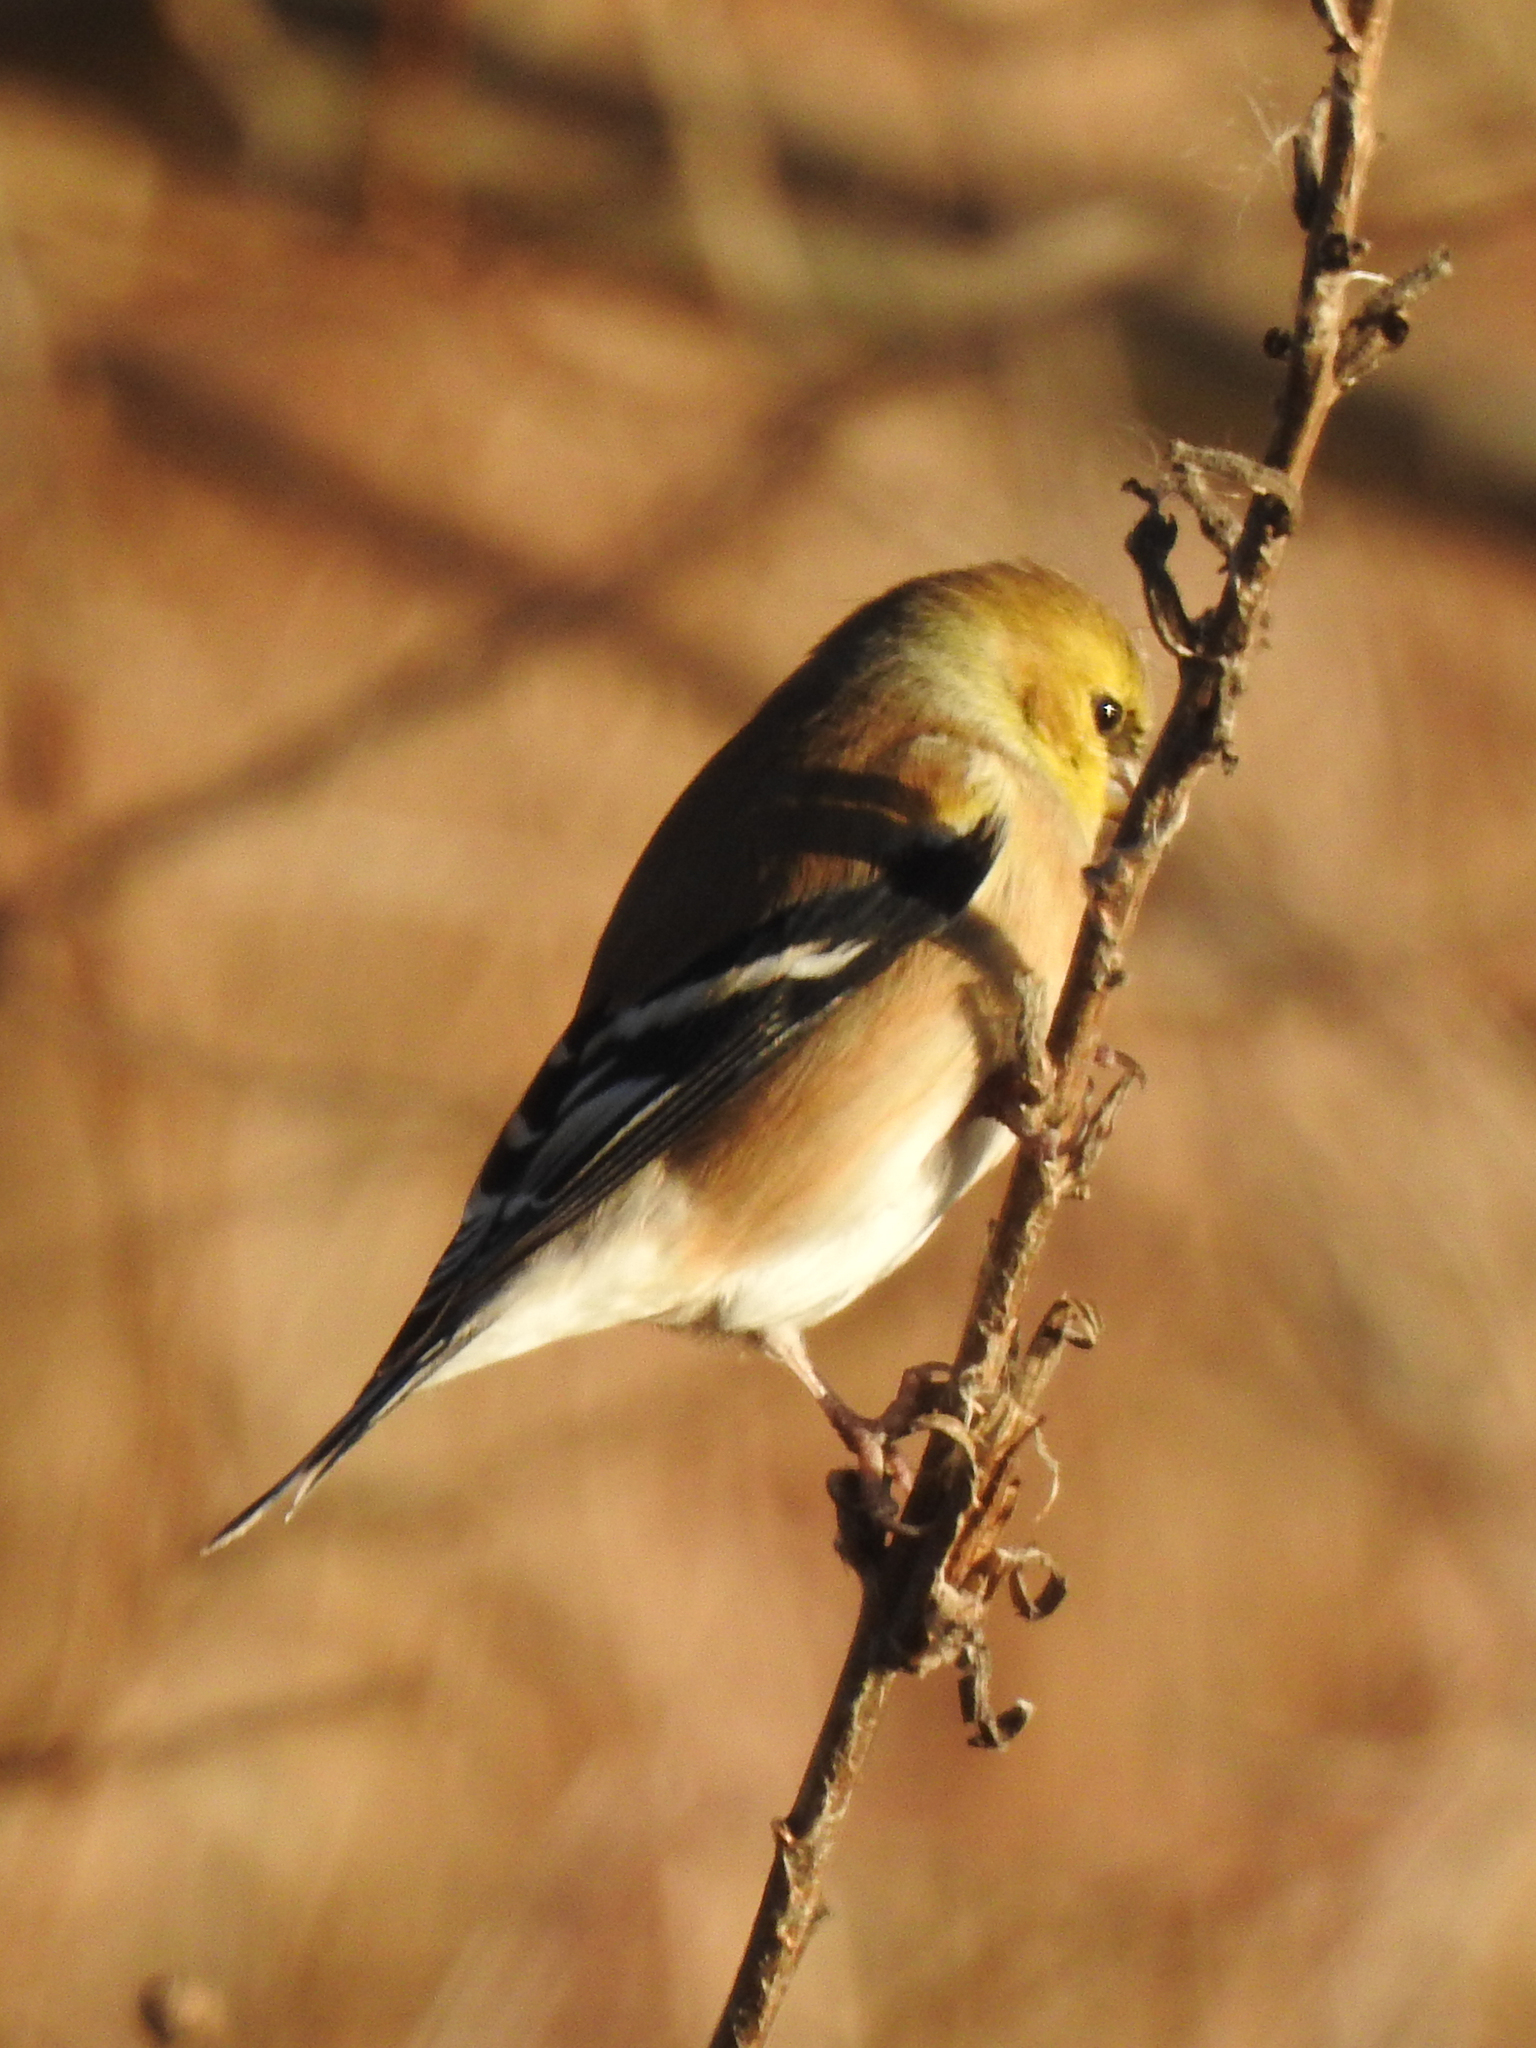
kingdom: Animalia
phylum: Chordata
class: Aves
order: Passeriformes
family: Fringillidae
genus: Spinus
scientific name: Spinus tristis
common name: American goldfinch
